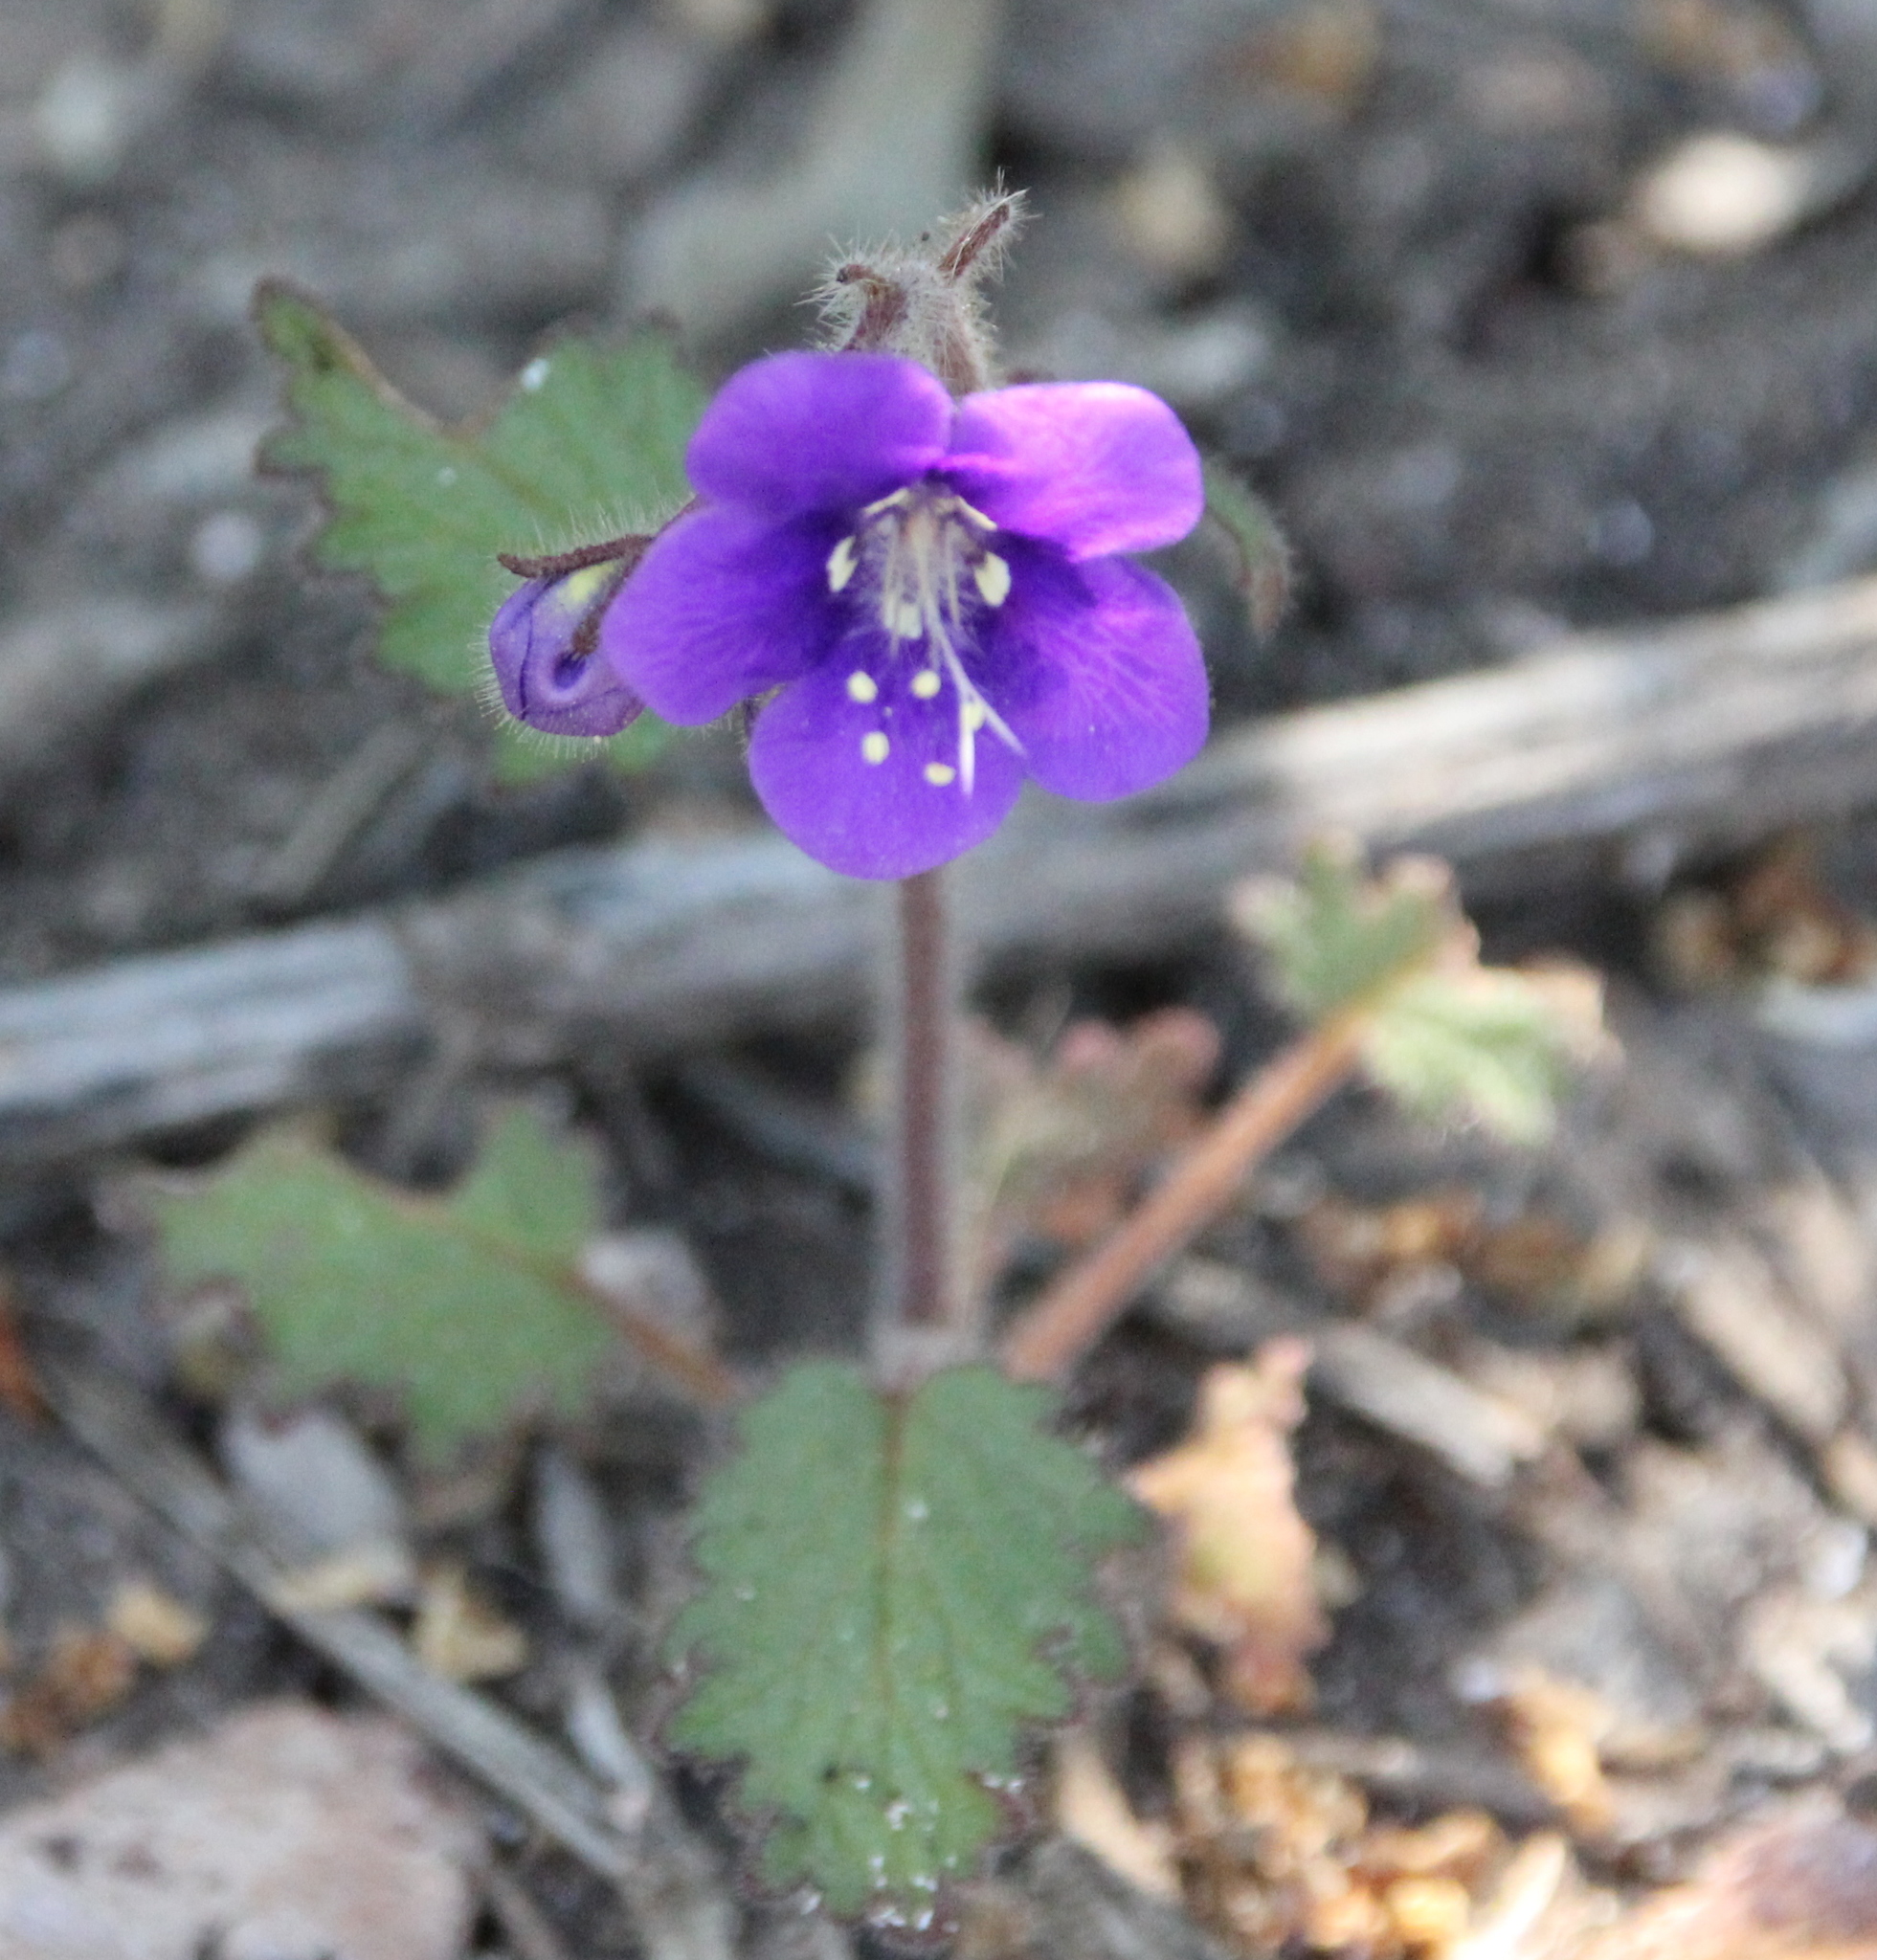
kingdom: Plantae
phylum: Tracheophyta
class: Magnoliopsida
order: Boraginales
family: Hydrophyllaceae
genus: Phacelia
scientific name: Phacelia parryi
